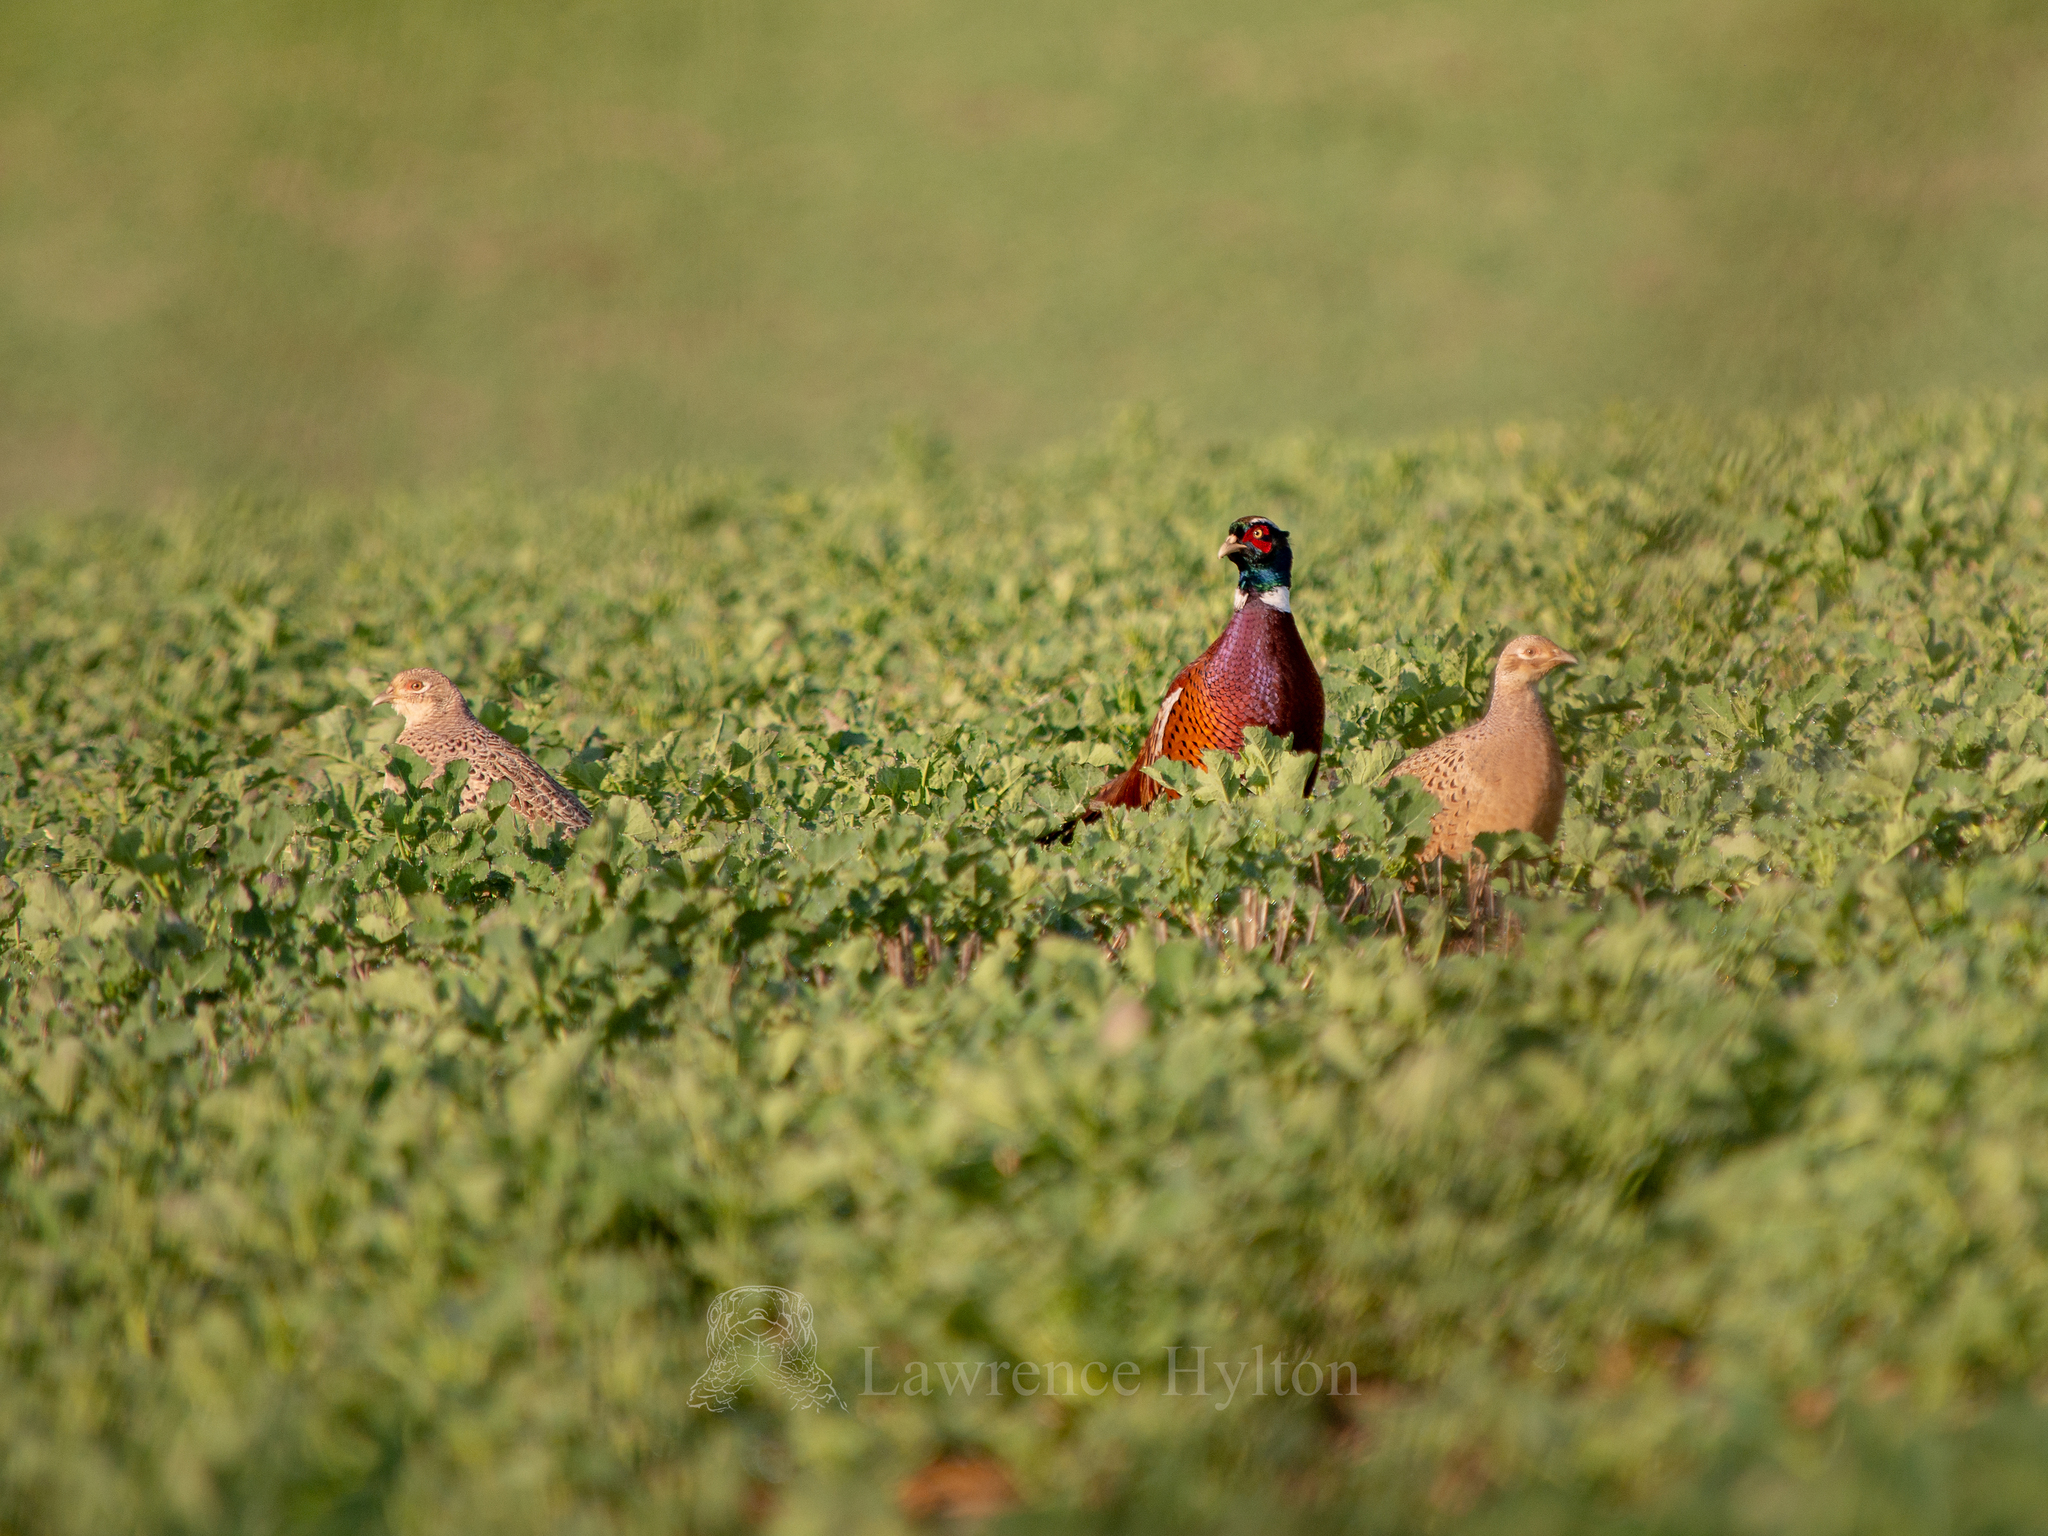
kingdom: Animalia
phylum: Chordata
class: Aves
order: Galliformes
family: Phasianidae
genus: Phasianus
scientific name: Phasianus colchicus
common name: Common pheasant
